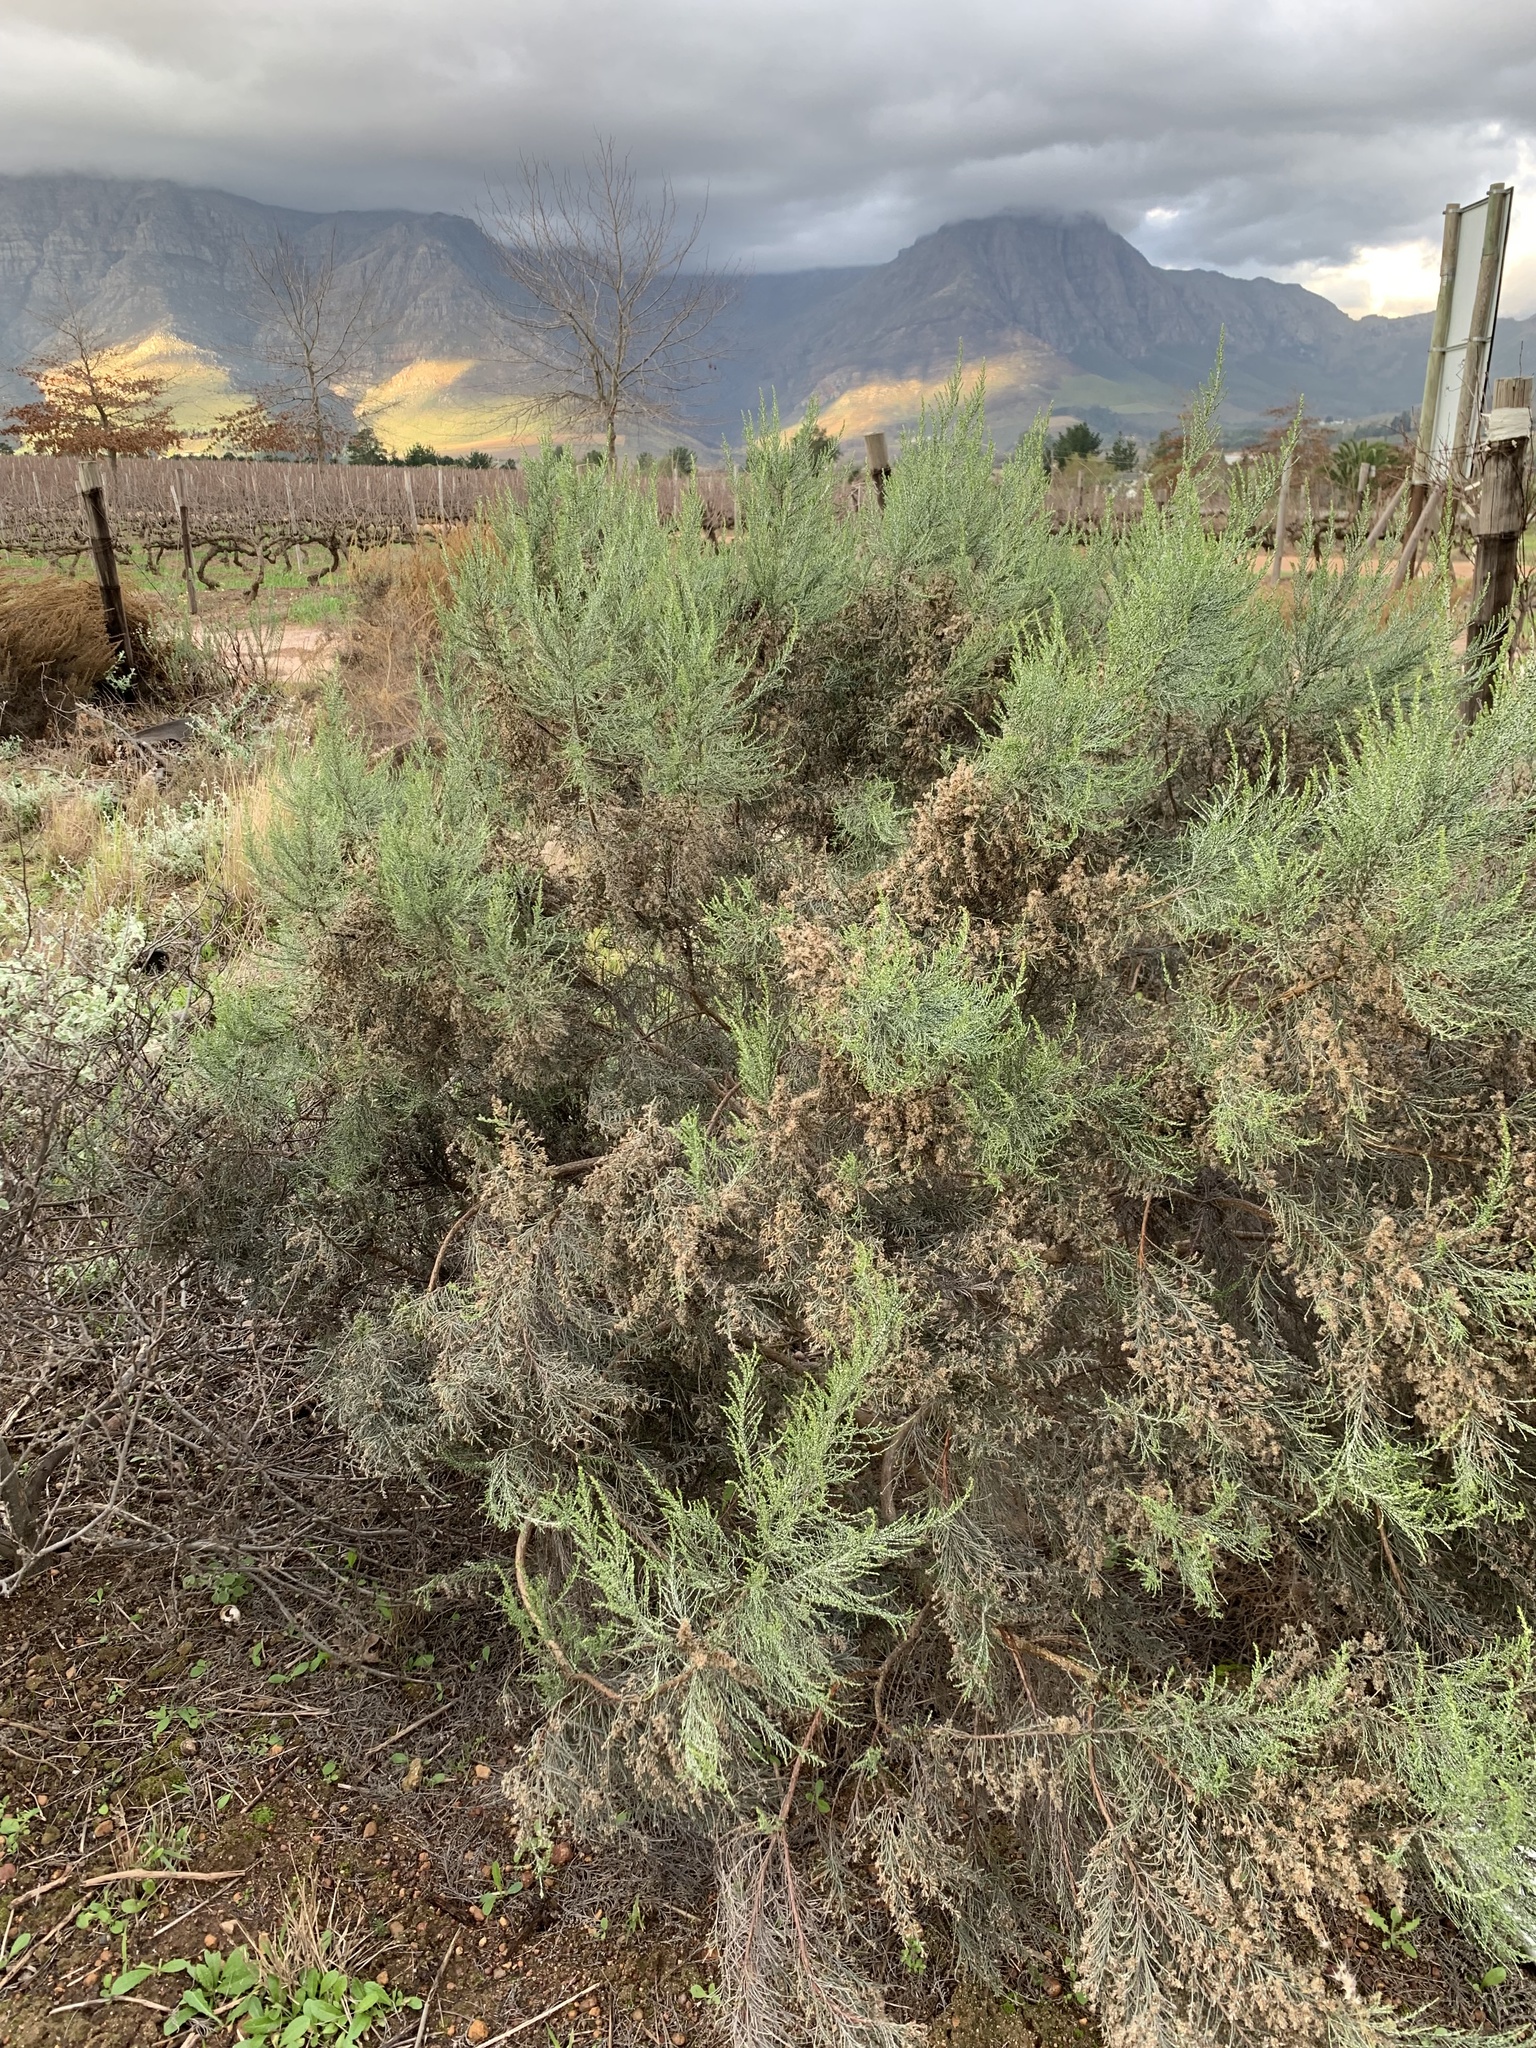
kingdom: Plantae
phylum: Tracheophyta
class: Magnoliopsida
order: Asterales
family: Asteraceae
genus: Dicerothamnus
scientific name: Dicerothamnus rhinocerotis
